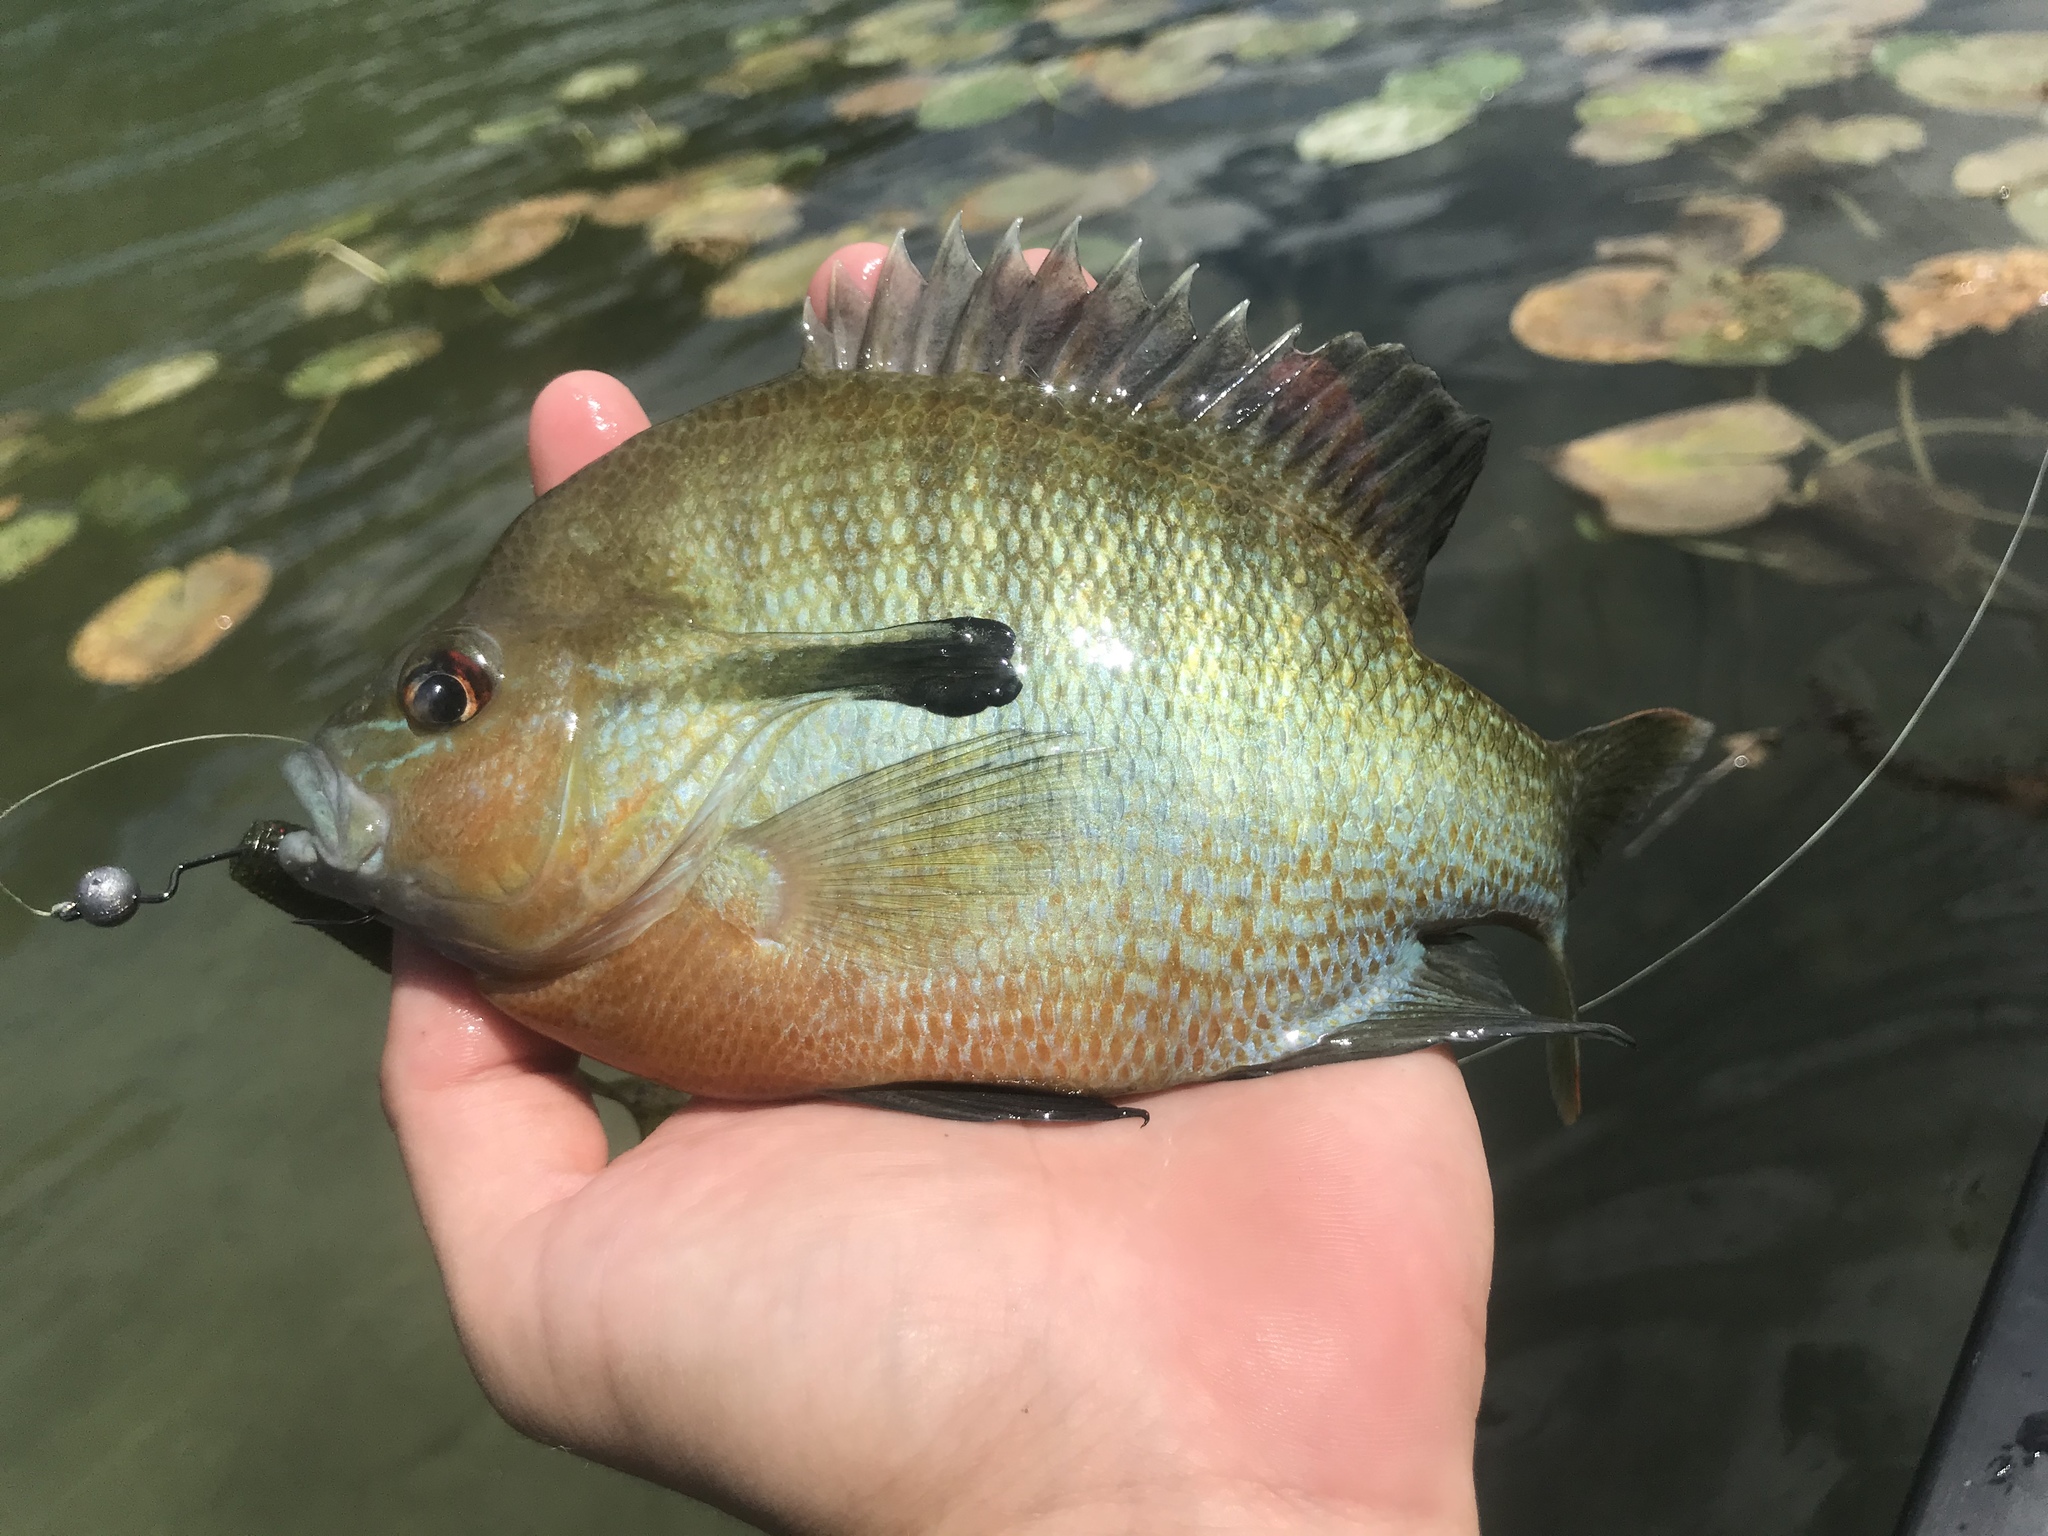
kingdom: Animalia
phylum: Chordata
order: Perciformes
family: Centrarchidae
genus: Lepomis
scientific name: Lepomis auritus
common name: Redbreast sunfish
